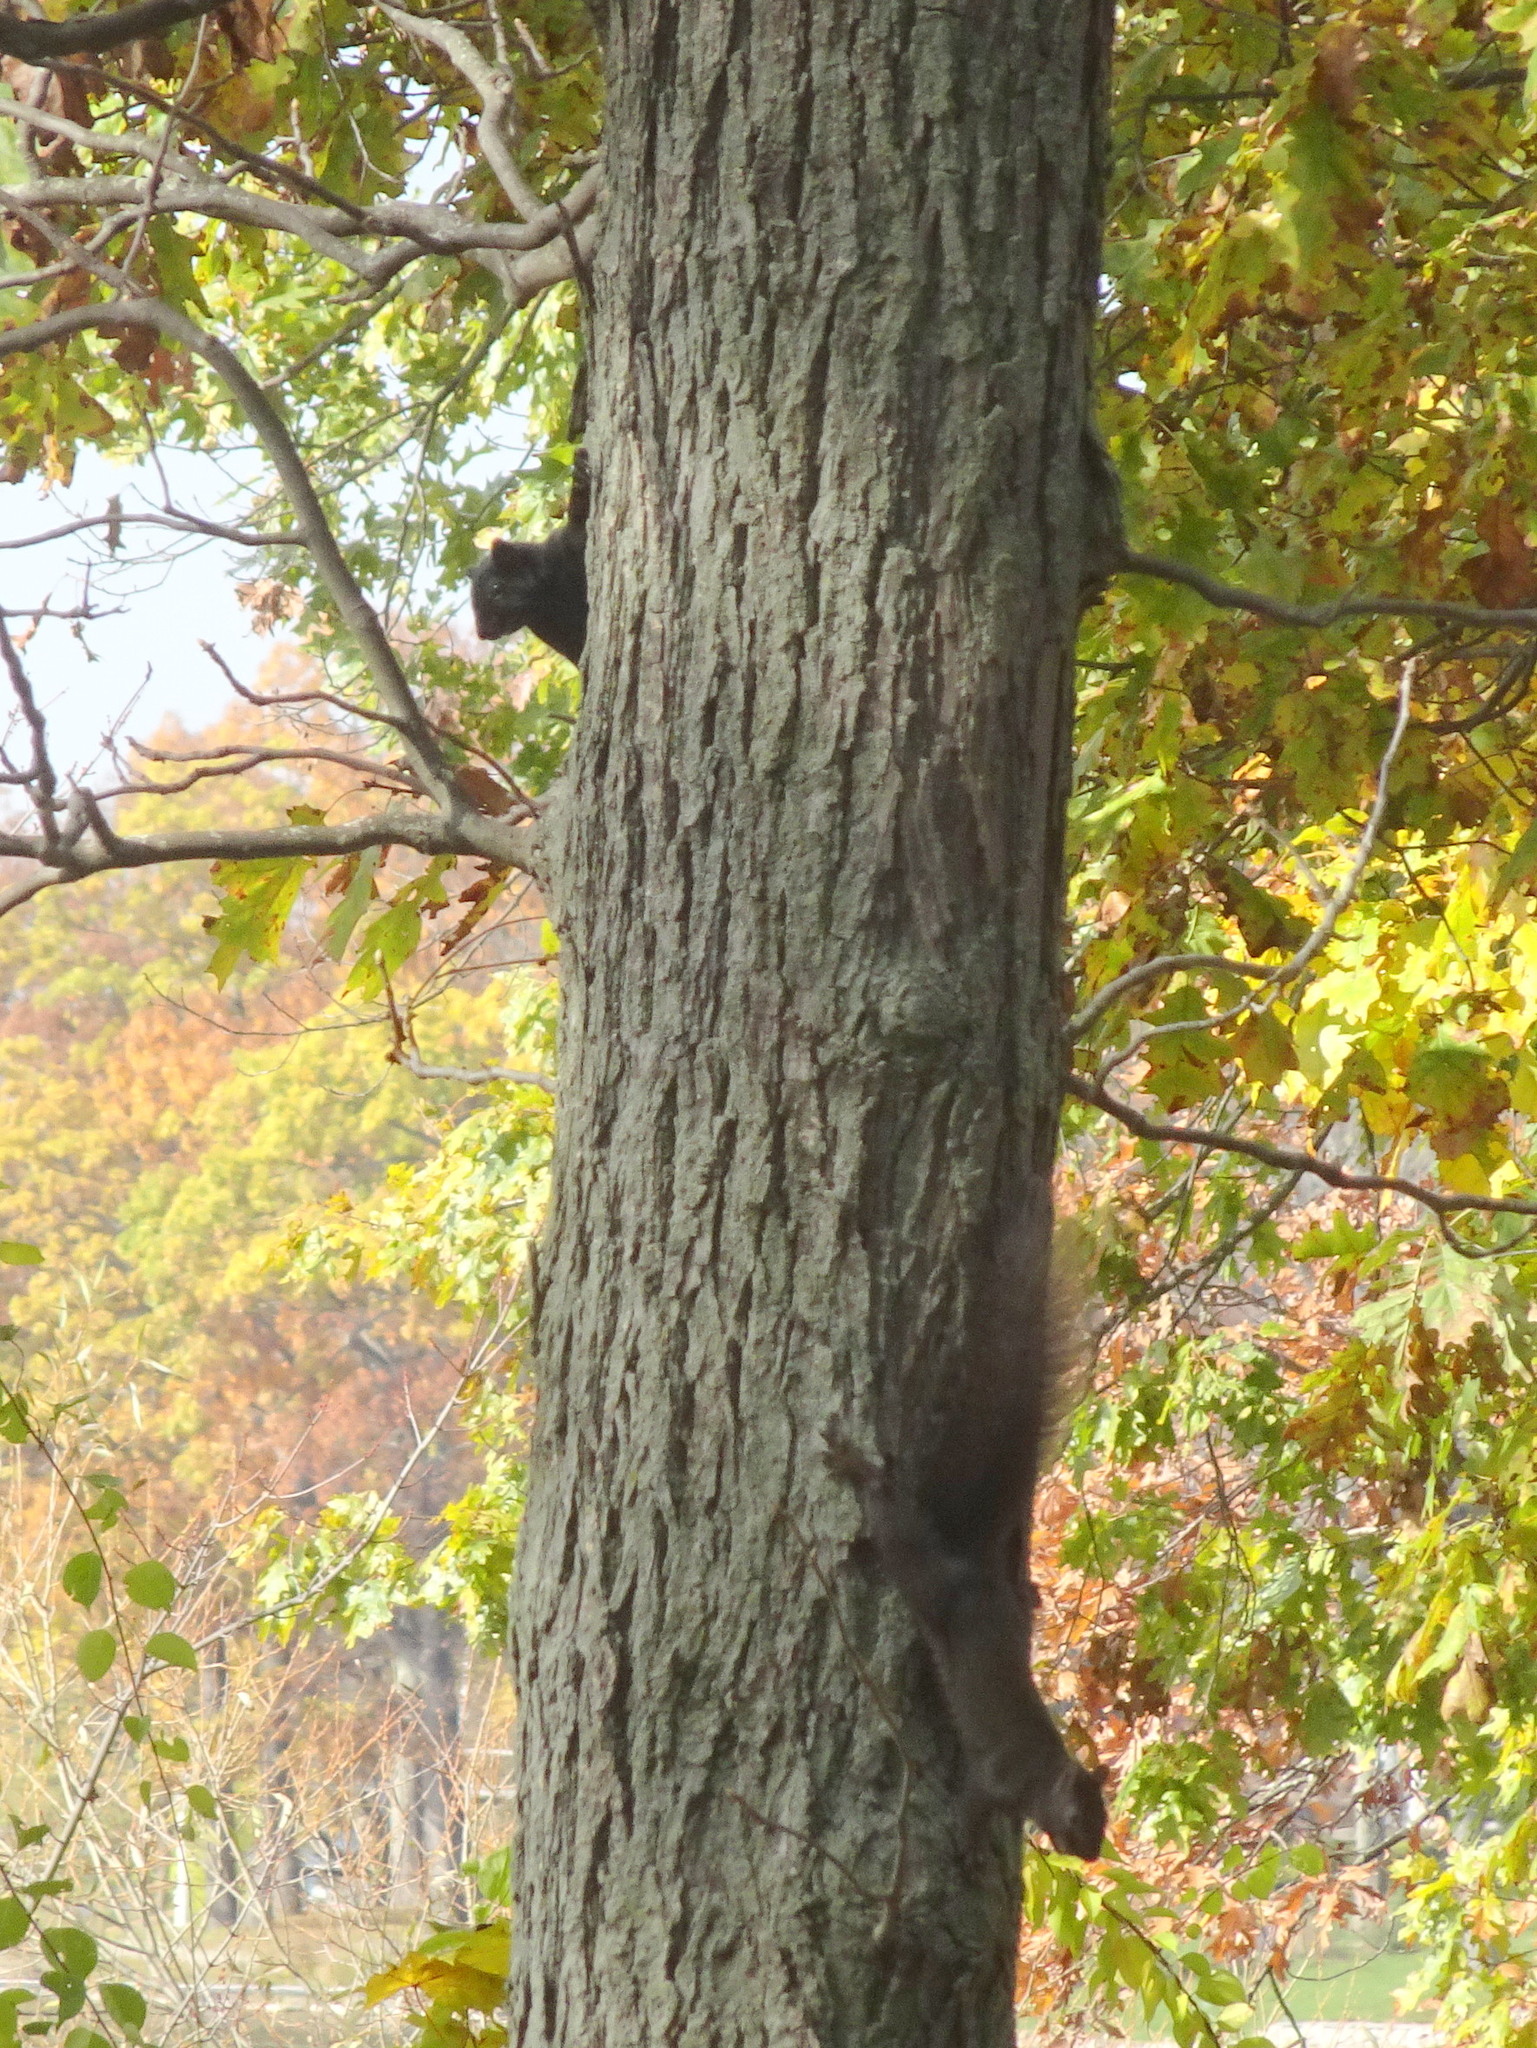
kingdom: Animalia
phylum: Chordata
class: Mammalia
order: Rodentia
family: Sciuridae
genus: Sciurus
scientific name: Sciurus carolinensis
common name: Eastern gray squirrel
